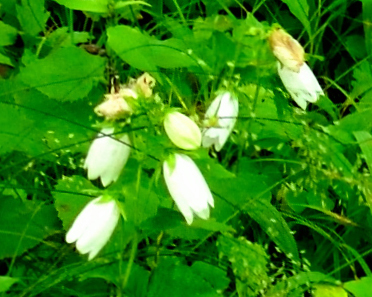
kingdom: Plantae
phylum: Tracheophyta
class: Magnoliopsida
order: Asterales
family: Campanulaceae
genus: Campanula
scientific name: Campanula punctata
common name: Spotted bellflower
